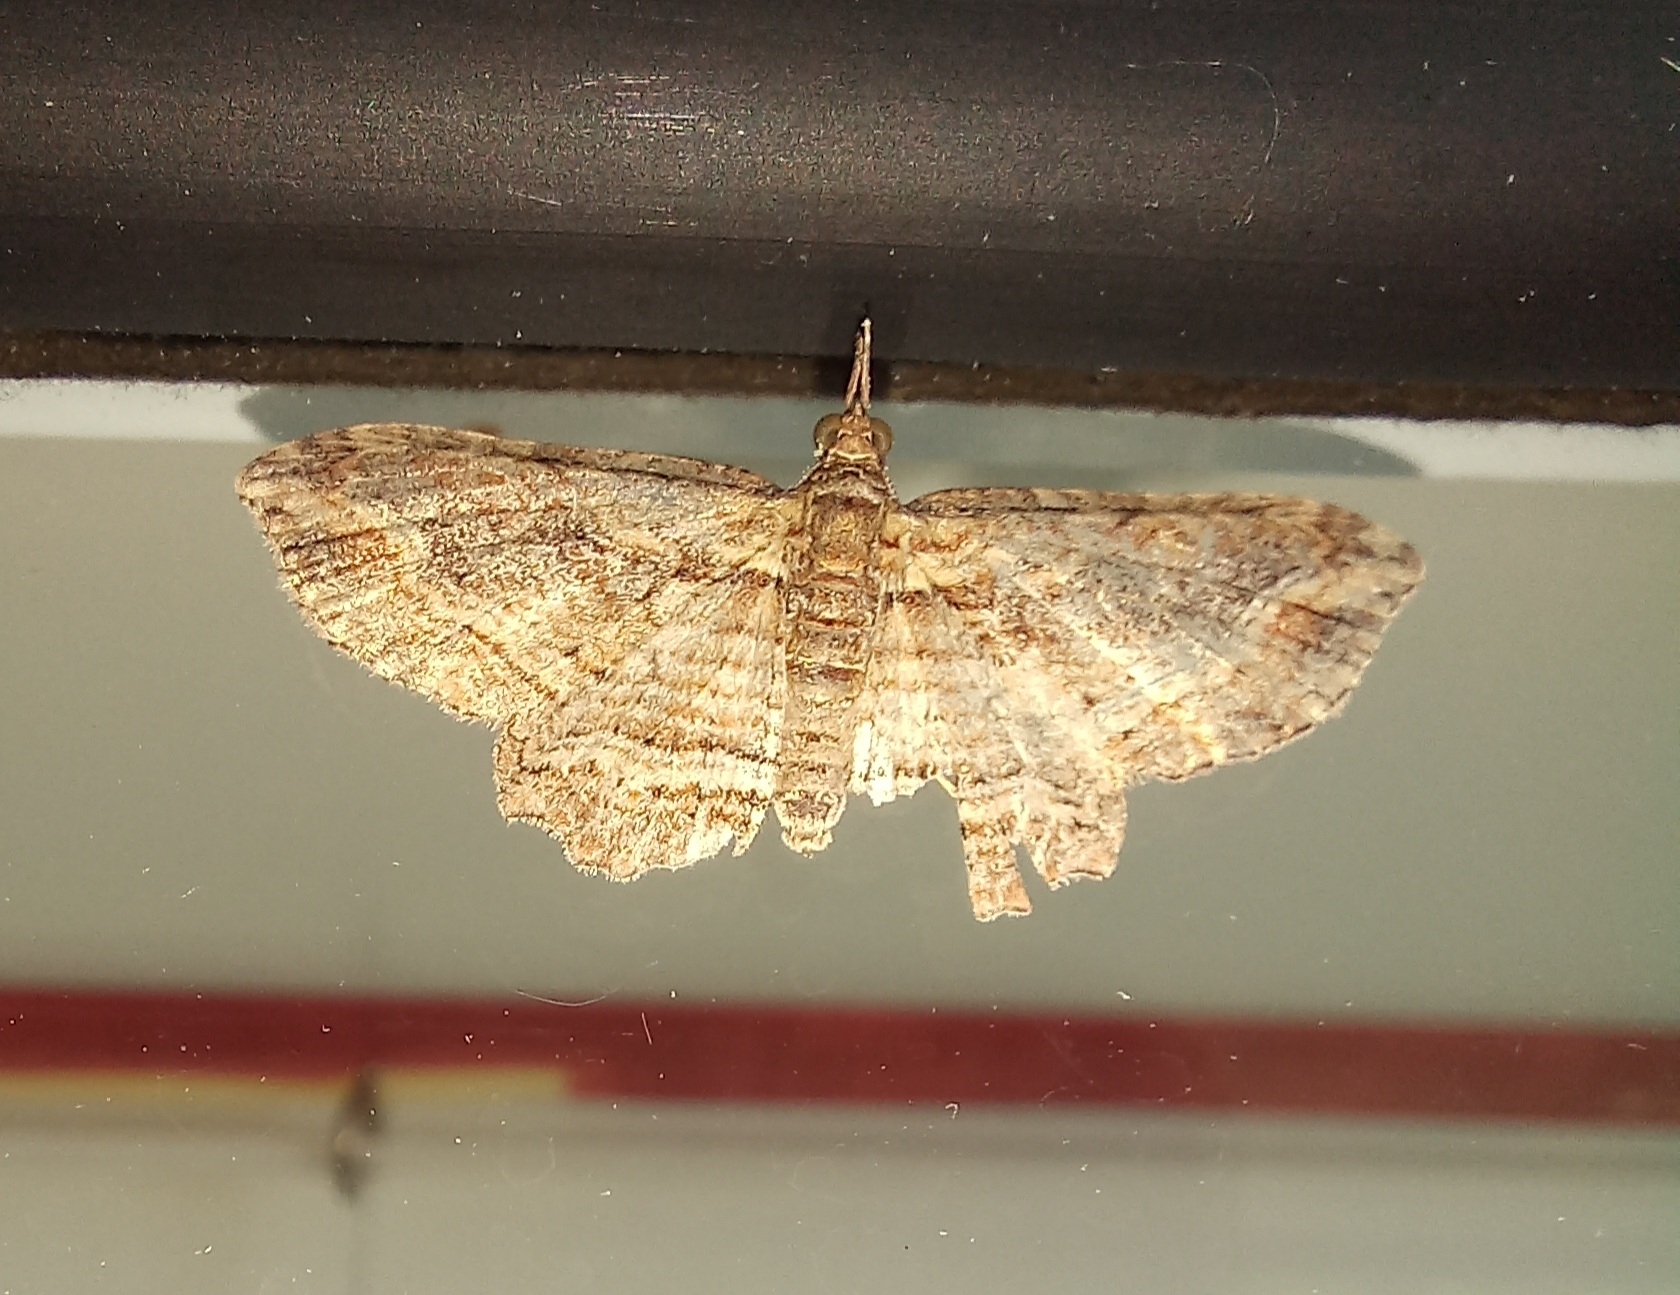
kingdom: Animalia
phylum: Arthropoda
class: Insecta
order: Lepidoptera
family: Geometridae
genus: Chloroclystis
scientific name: Chloroclystis filata
